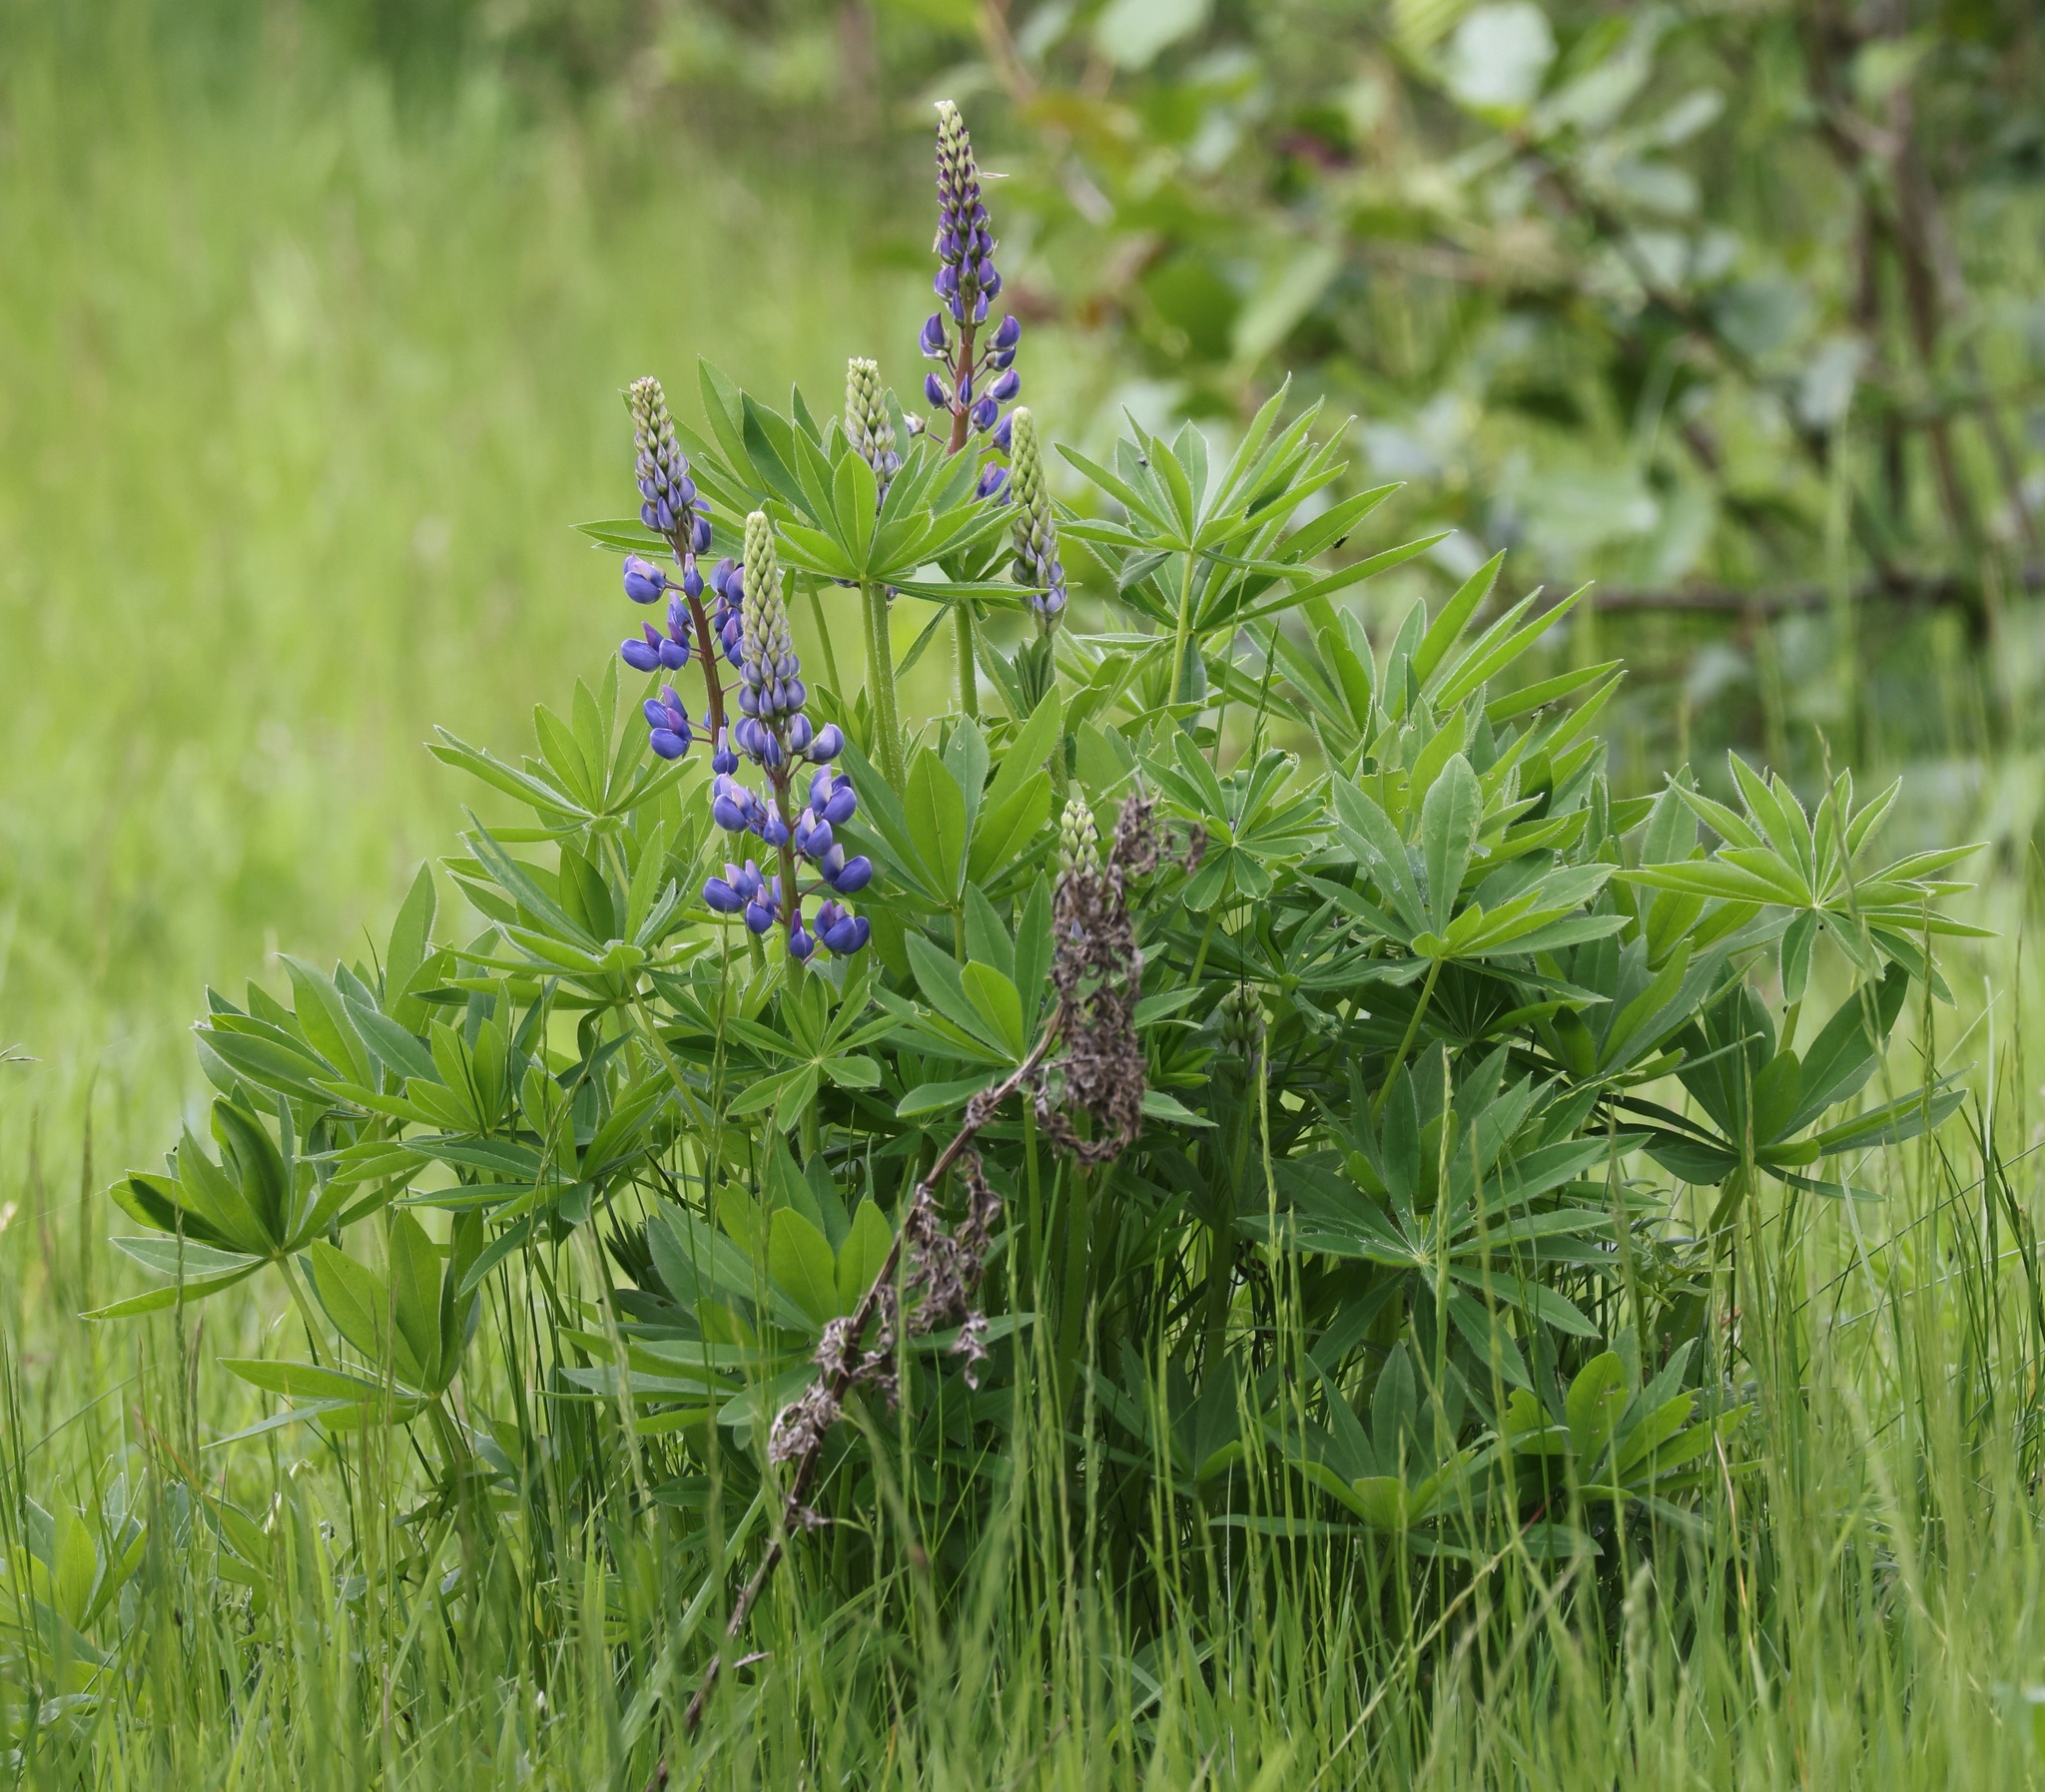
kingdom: Plantae
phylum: Tracheophyta
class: Magnoliopsida
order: Fabales
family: Fabaceae
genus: Lupinus
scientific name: Lupinus polyphyllus
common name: Garden lupin
